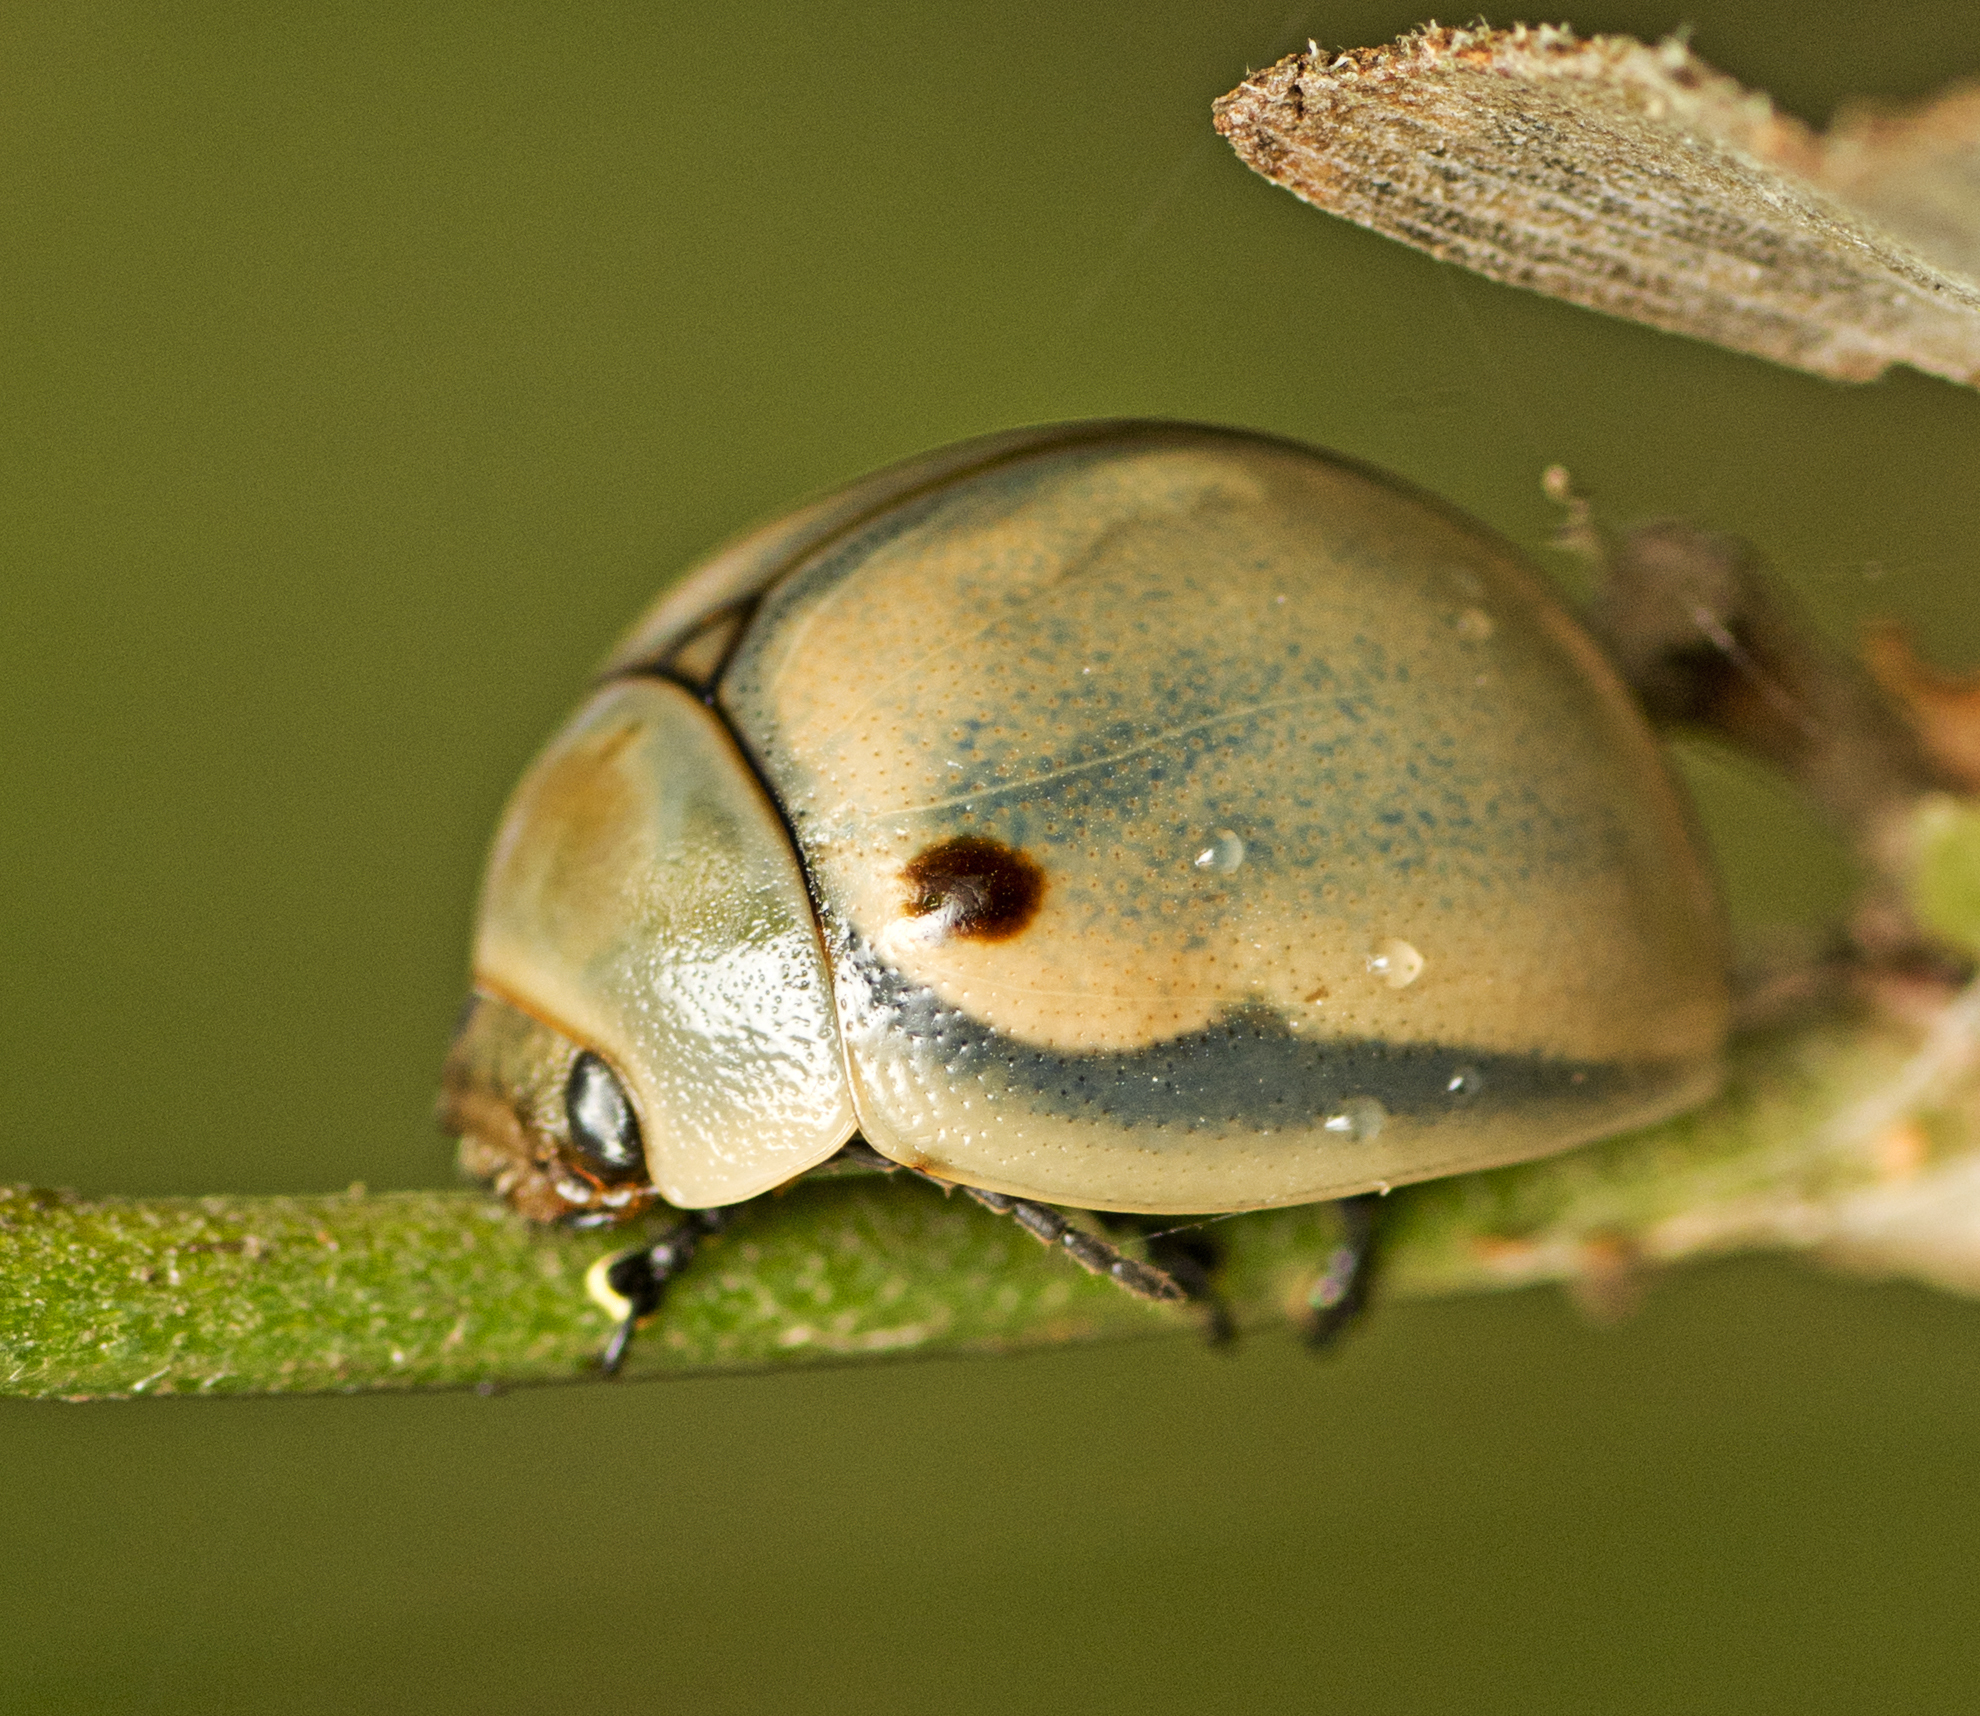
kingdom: Animalia
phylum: Arthropoda
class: Insecta
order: Coleoptera
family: Chrysomelidae
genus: Dicranosterna
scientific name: Dicranosterna
